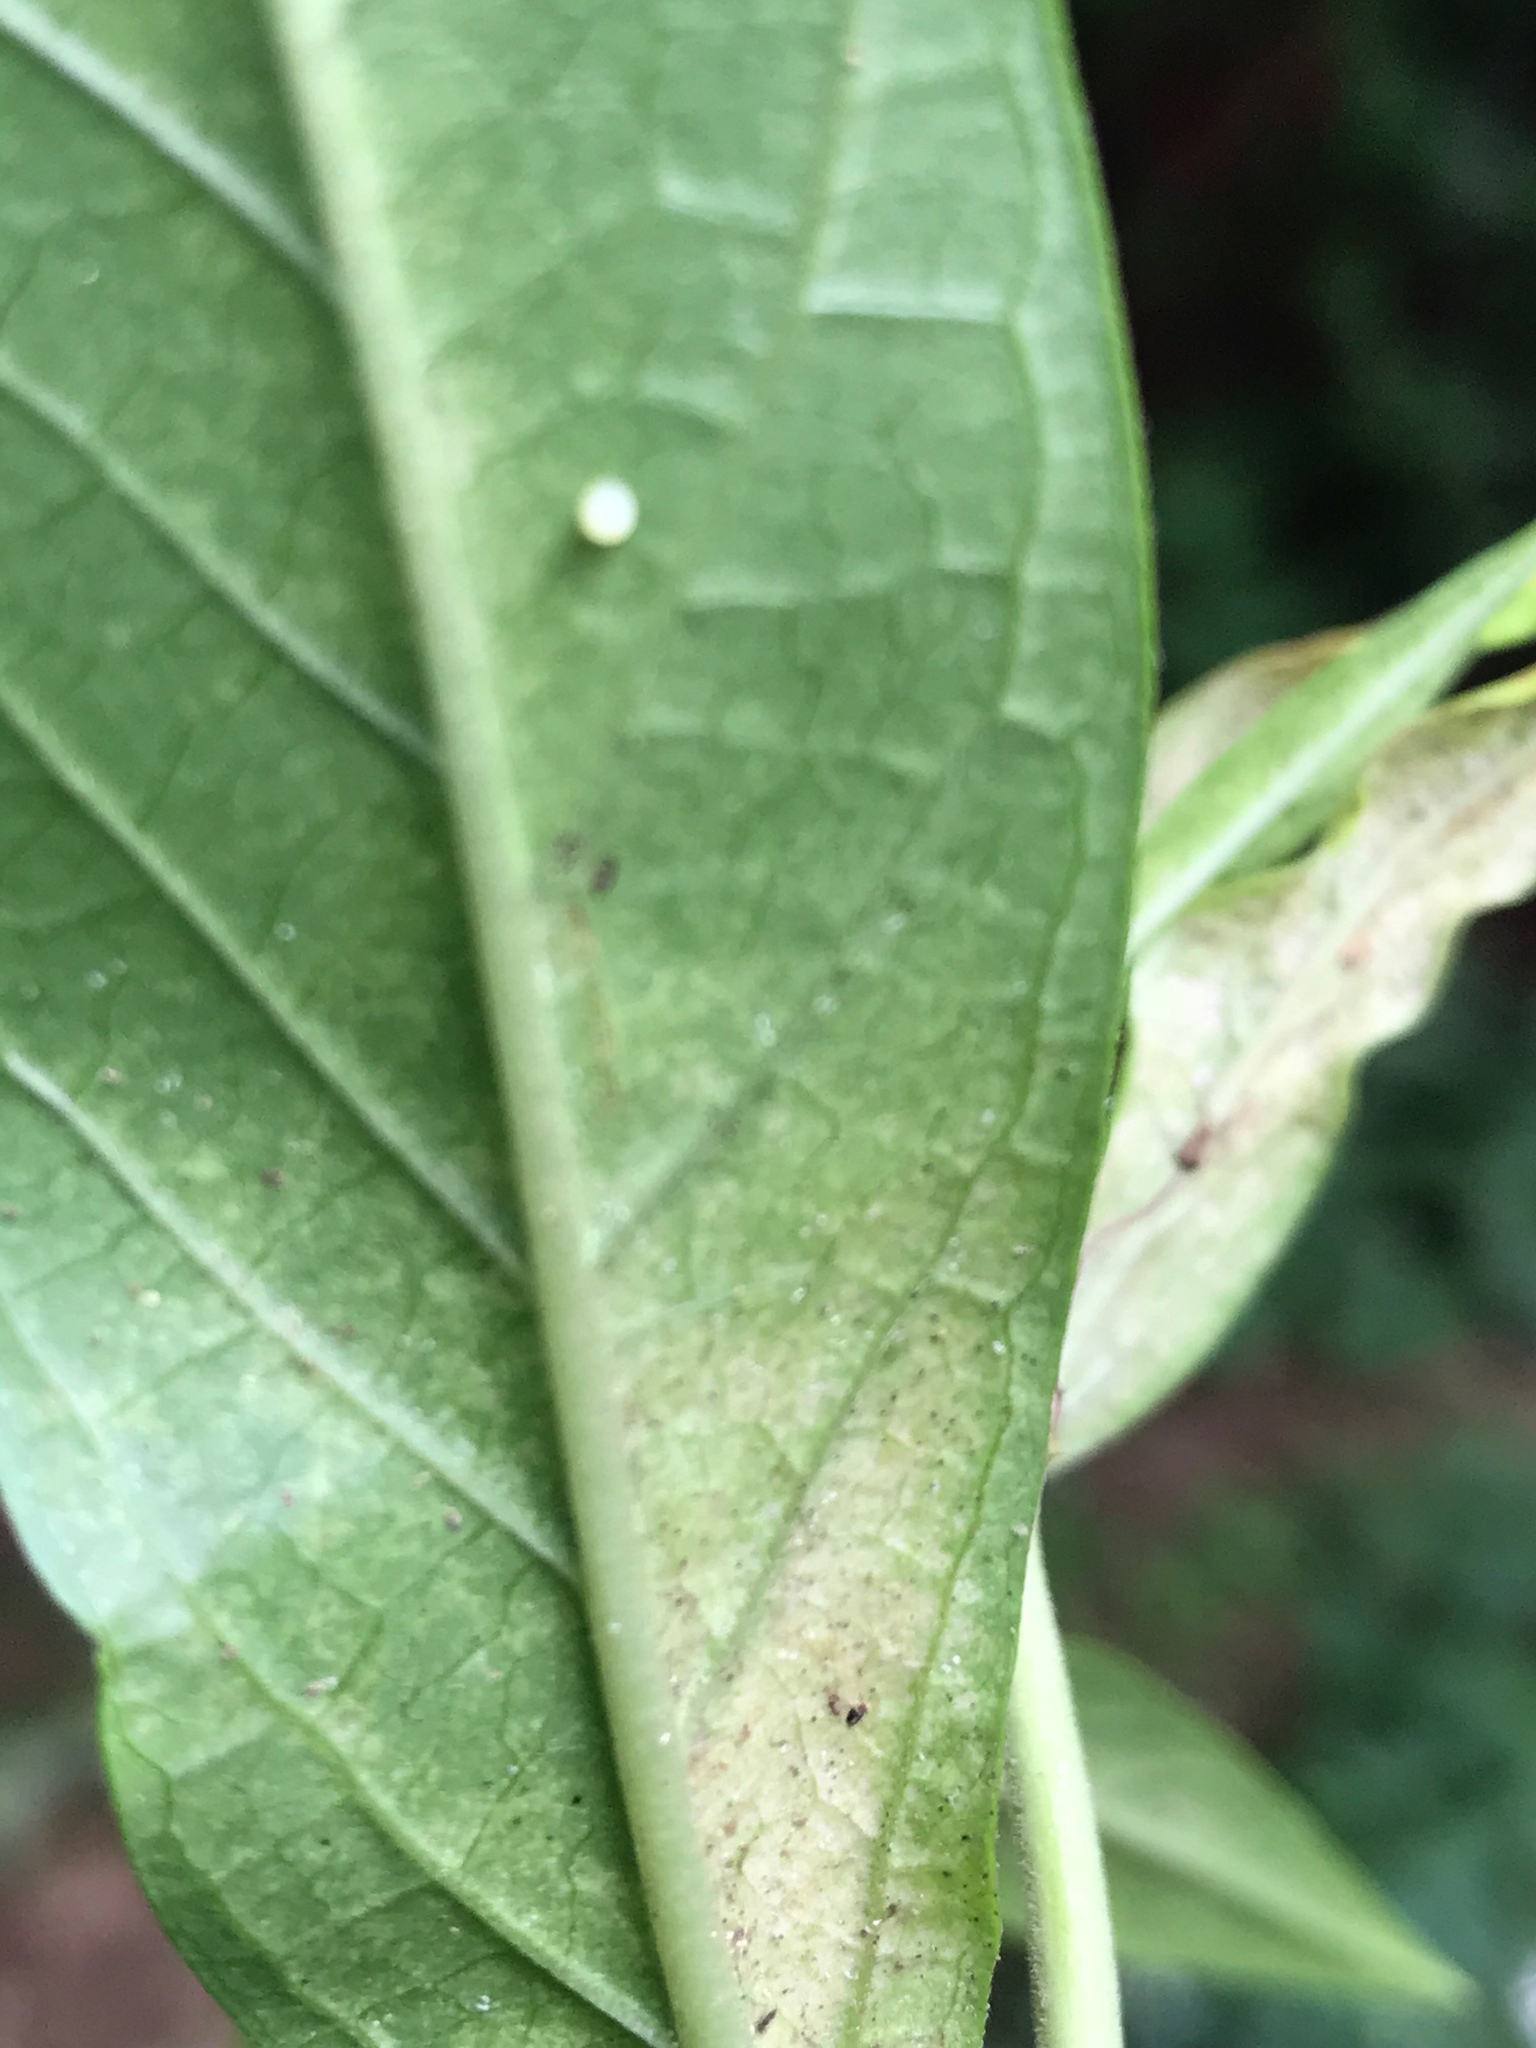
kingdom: Animalia
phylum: Arthropoda
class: Insecta
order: Lepidoptera
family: Nymphalidae
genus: Danaus
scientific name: Danaus plexippus
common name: Monarch
